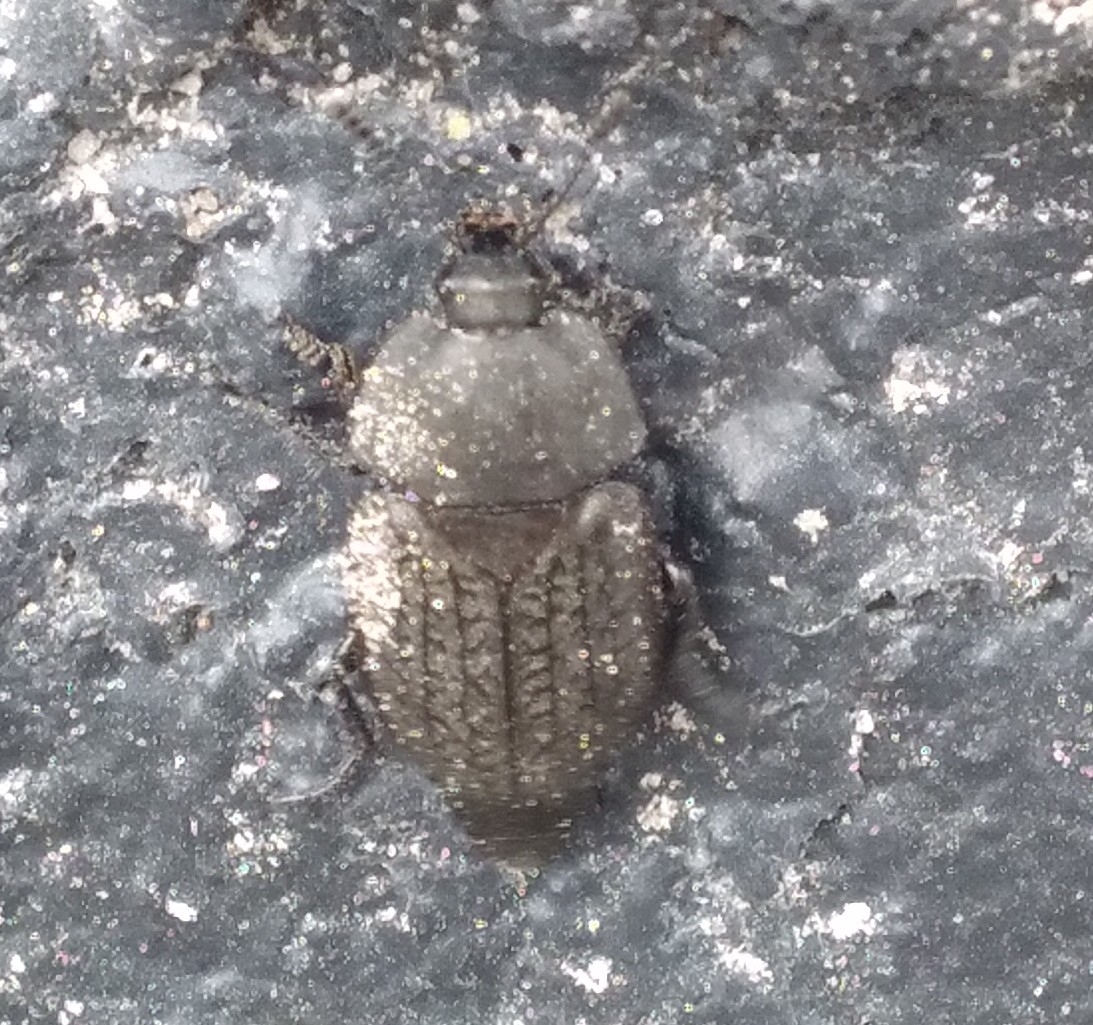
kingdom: Animalia
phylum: Arthropoda
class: Insecta
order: Coleoptera
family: Staphylinidae
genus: Heterosilpha
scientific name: Heterosilpha ramosa
